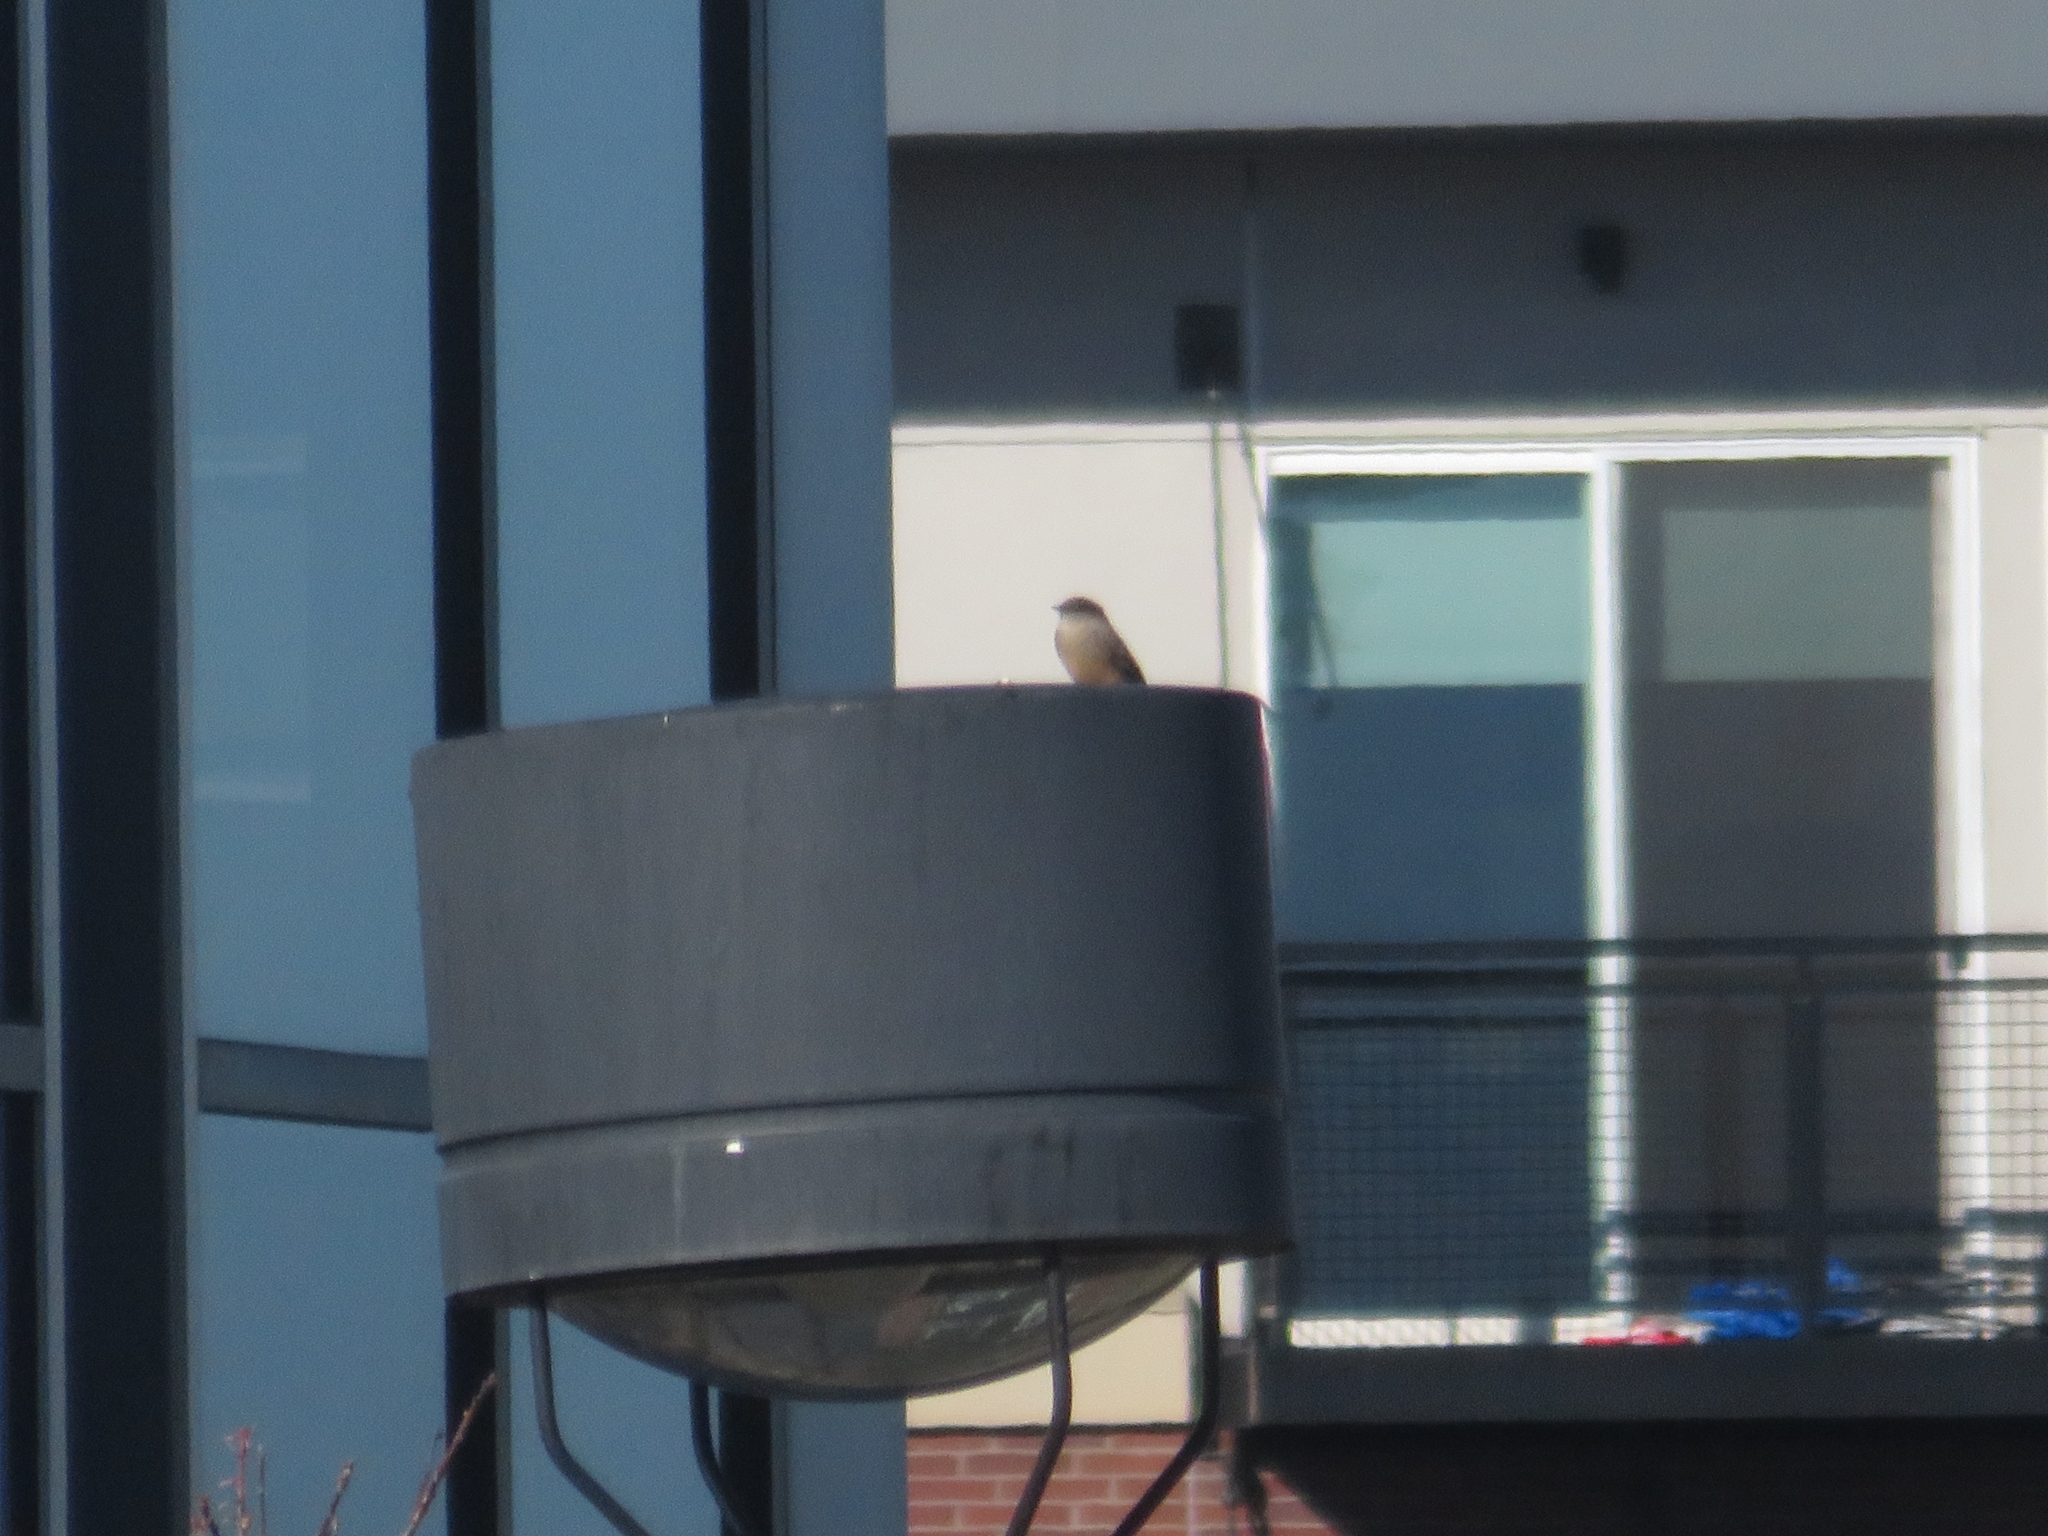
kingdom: Animalia
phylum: Chordata
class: Aves
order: Passeriformes
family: Tyrannidae
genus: Sayornis
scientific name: Sayornis saya
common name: Say's phoebe
